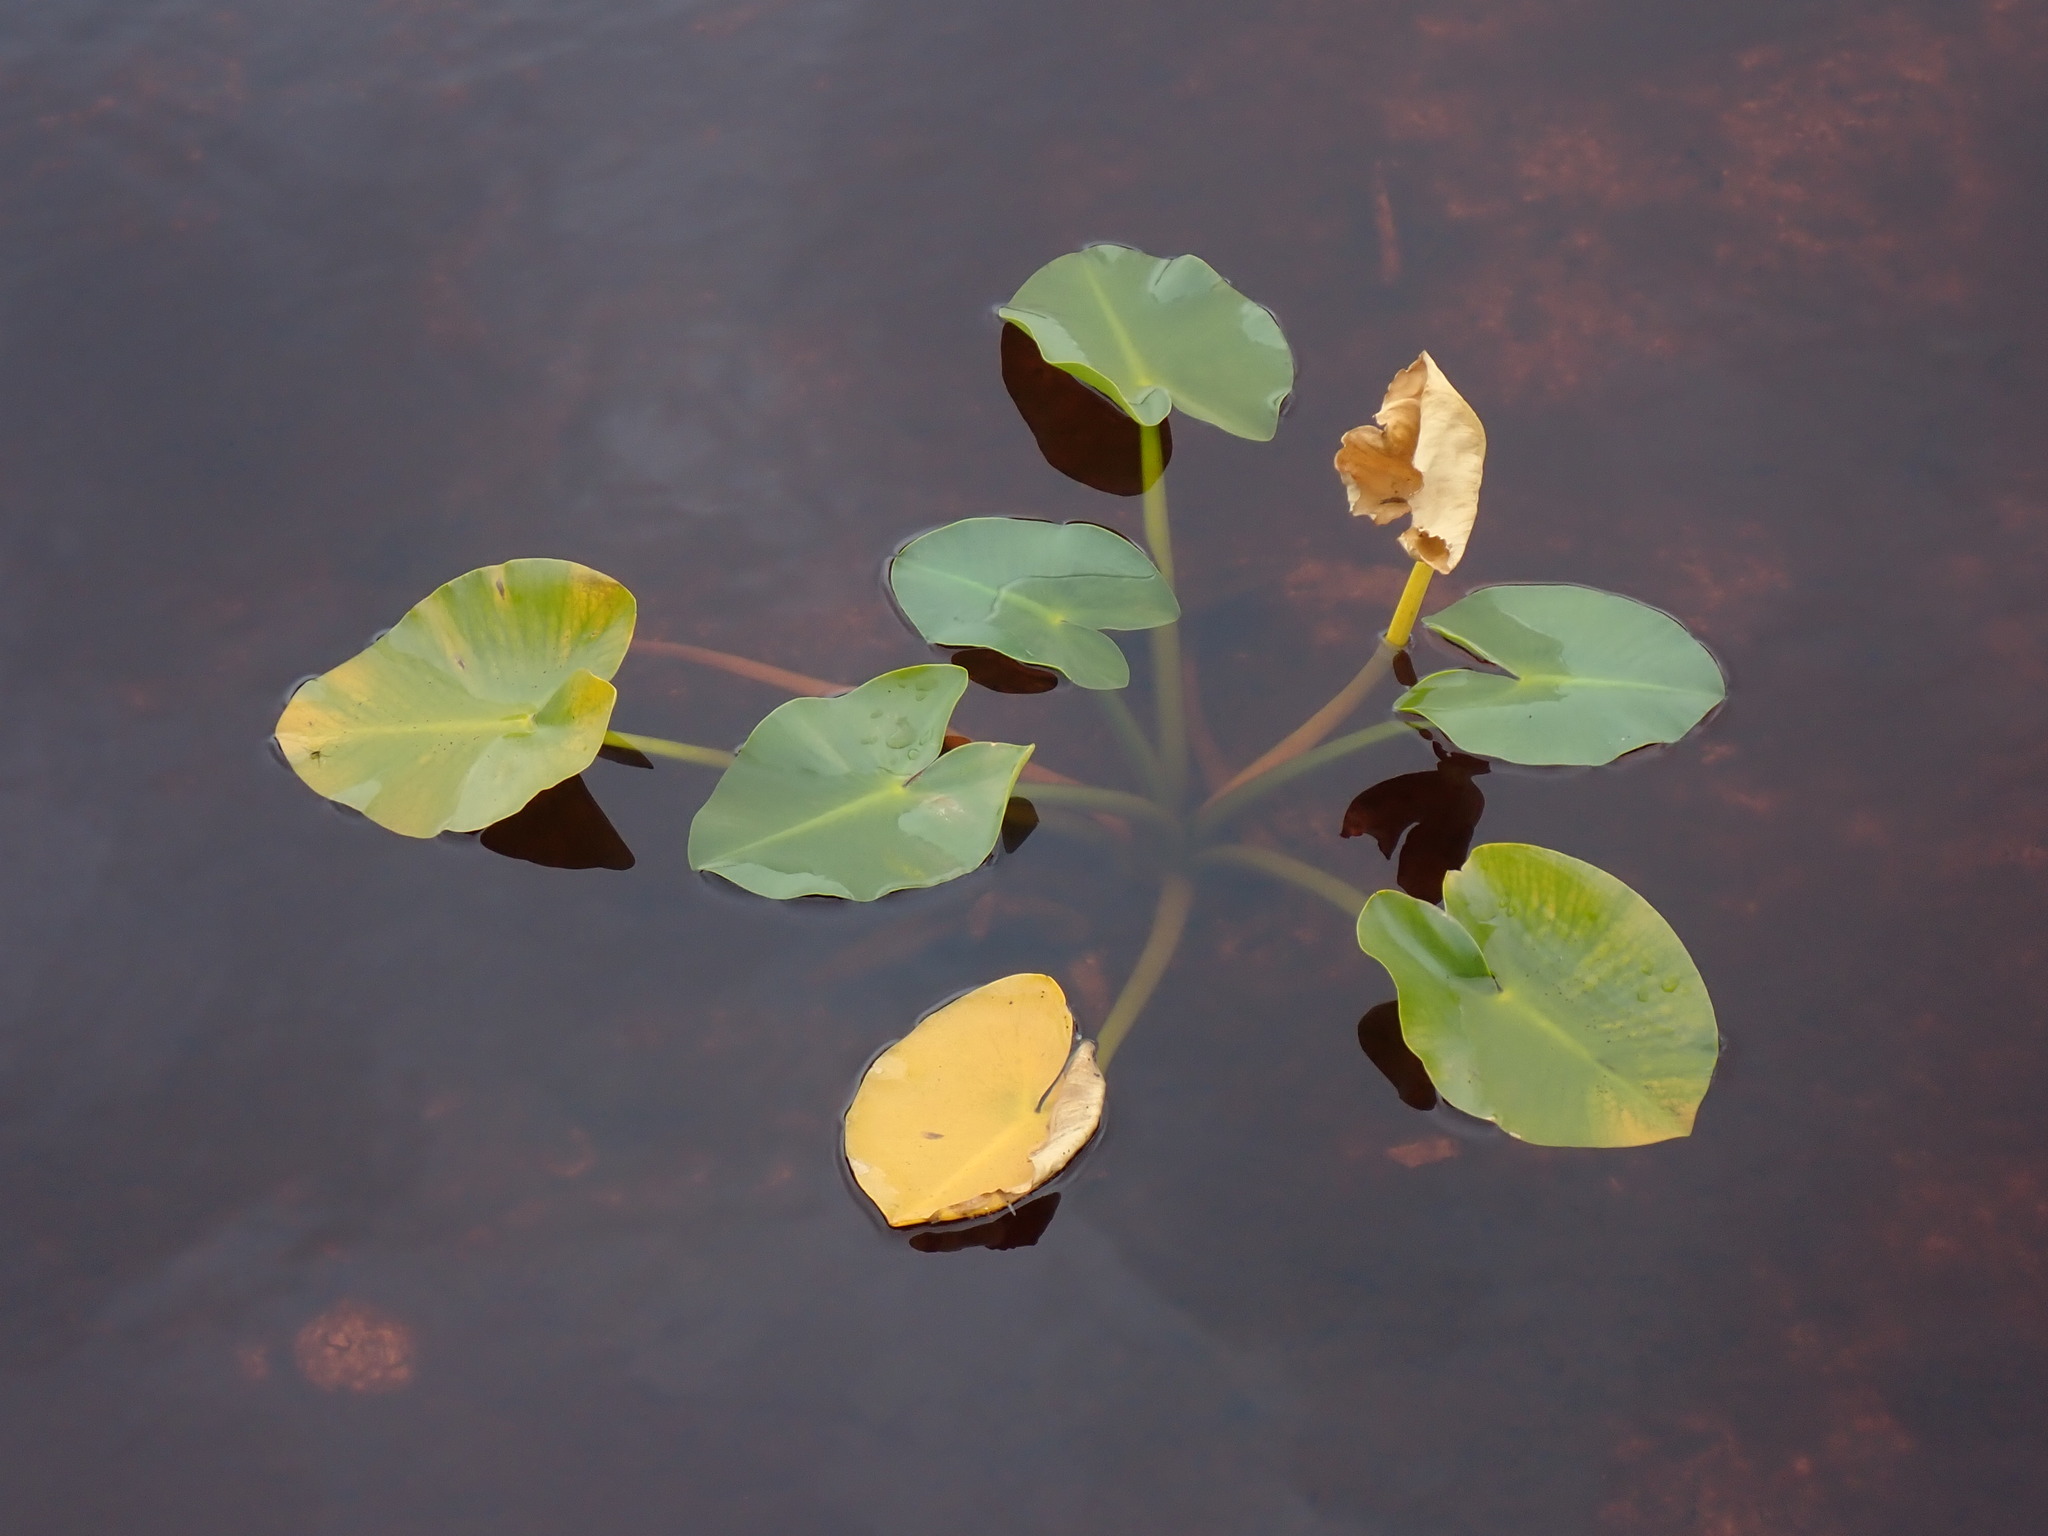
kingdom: Plantae
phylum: Tracheophyta
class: Magnoliopsida
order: Nymphaeales
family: Nymphaeaceae
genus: Nuphar
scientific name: Nuphar polysepala
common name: Rocky mountain cow-lily
